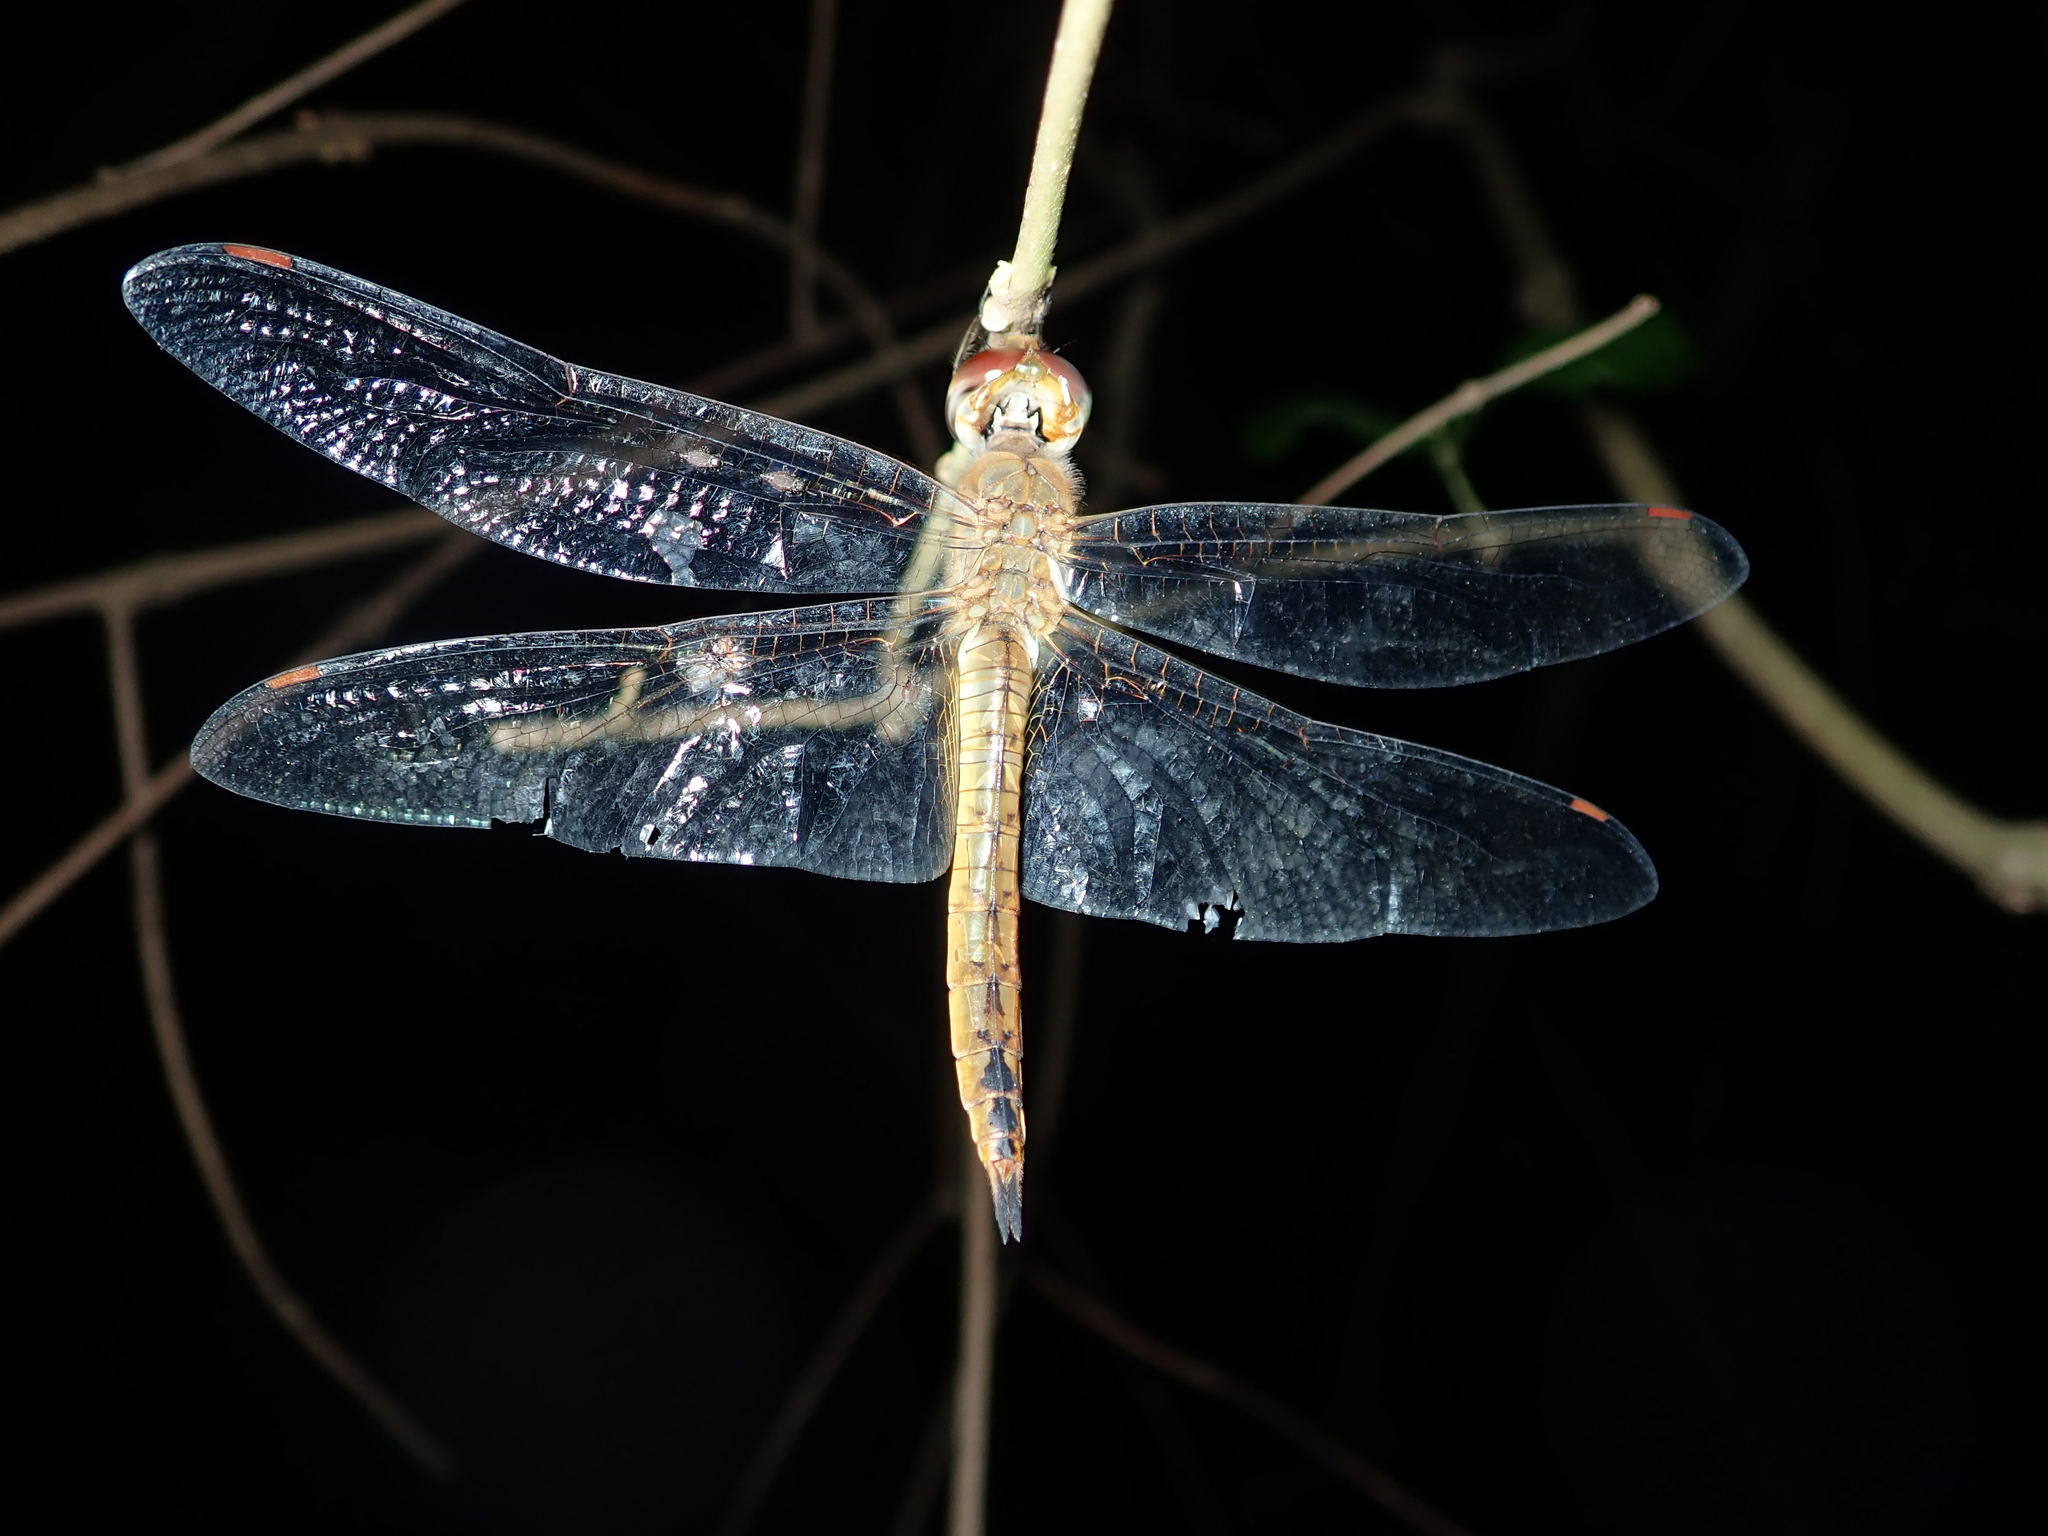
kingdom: Animalia
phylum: Arthropoda
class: Insecta
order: Odonata
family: Libellulidae
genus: Pantala
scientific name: Pantala flavescens
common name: Wandering glider
